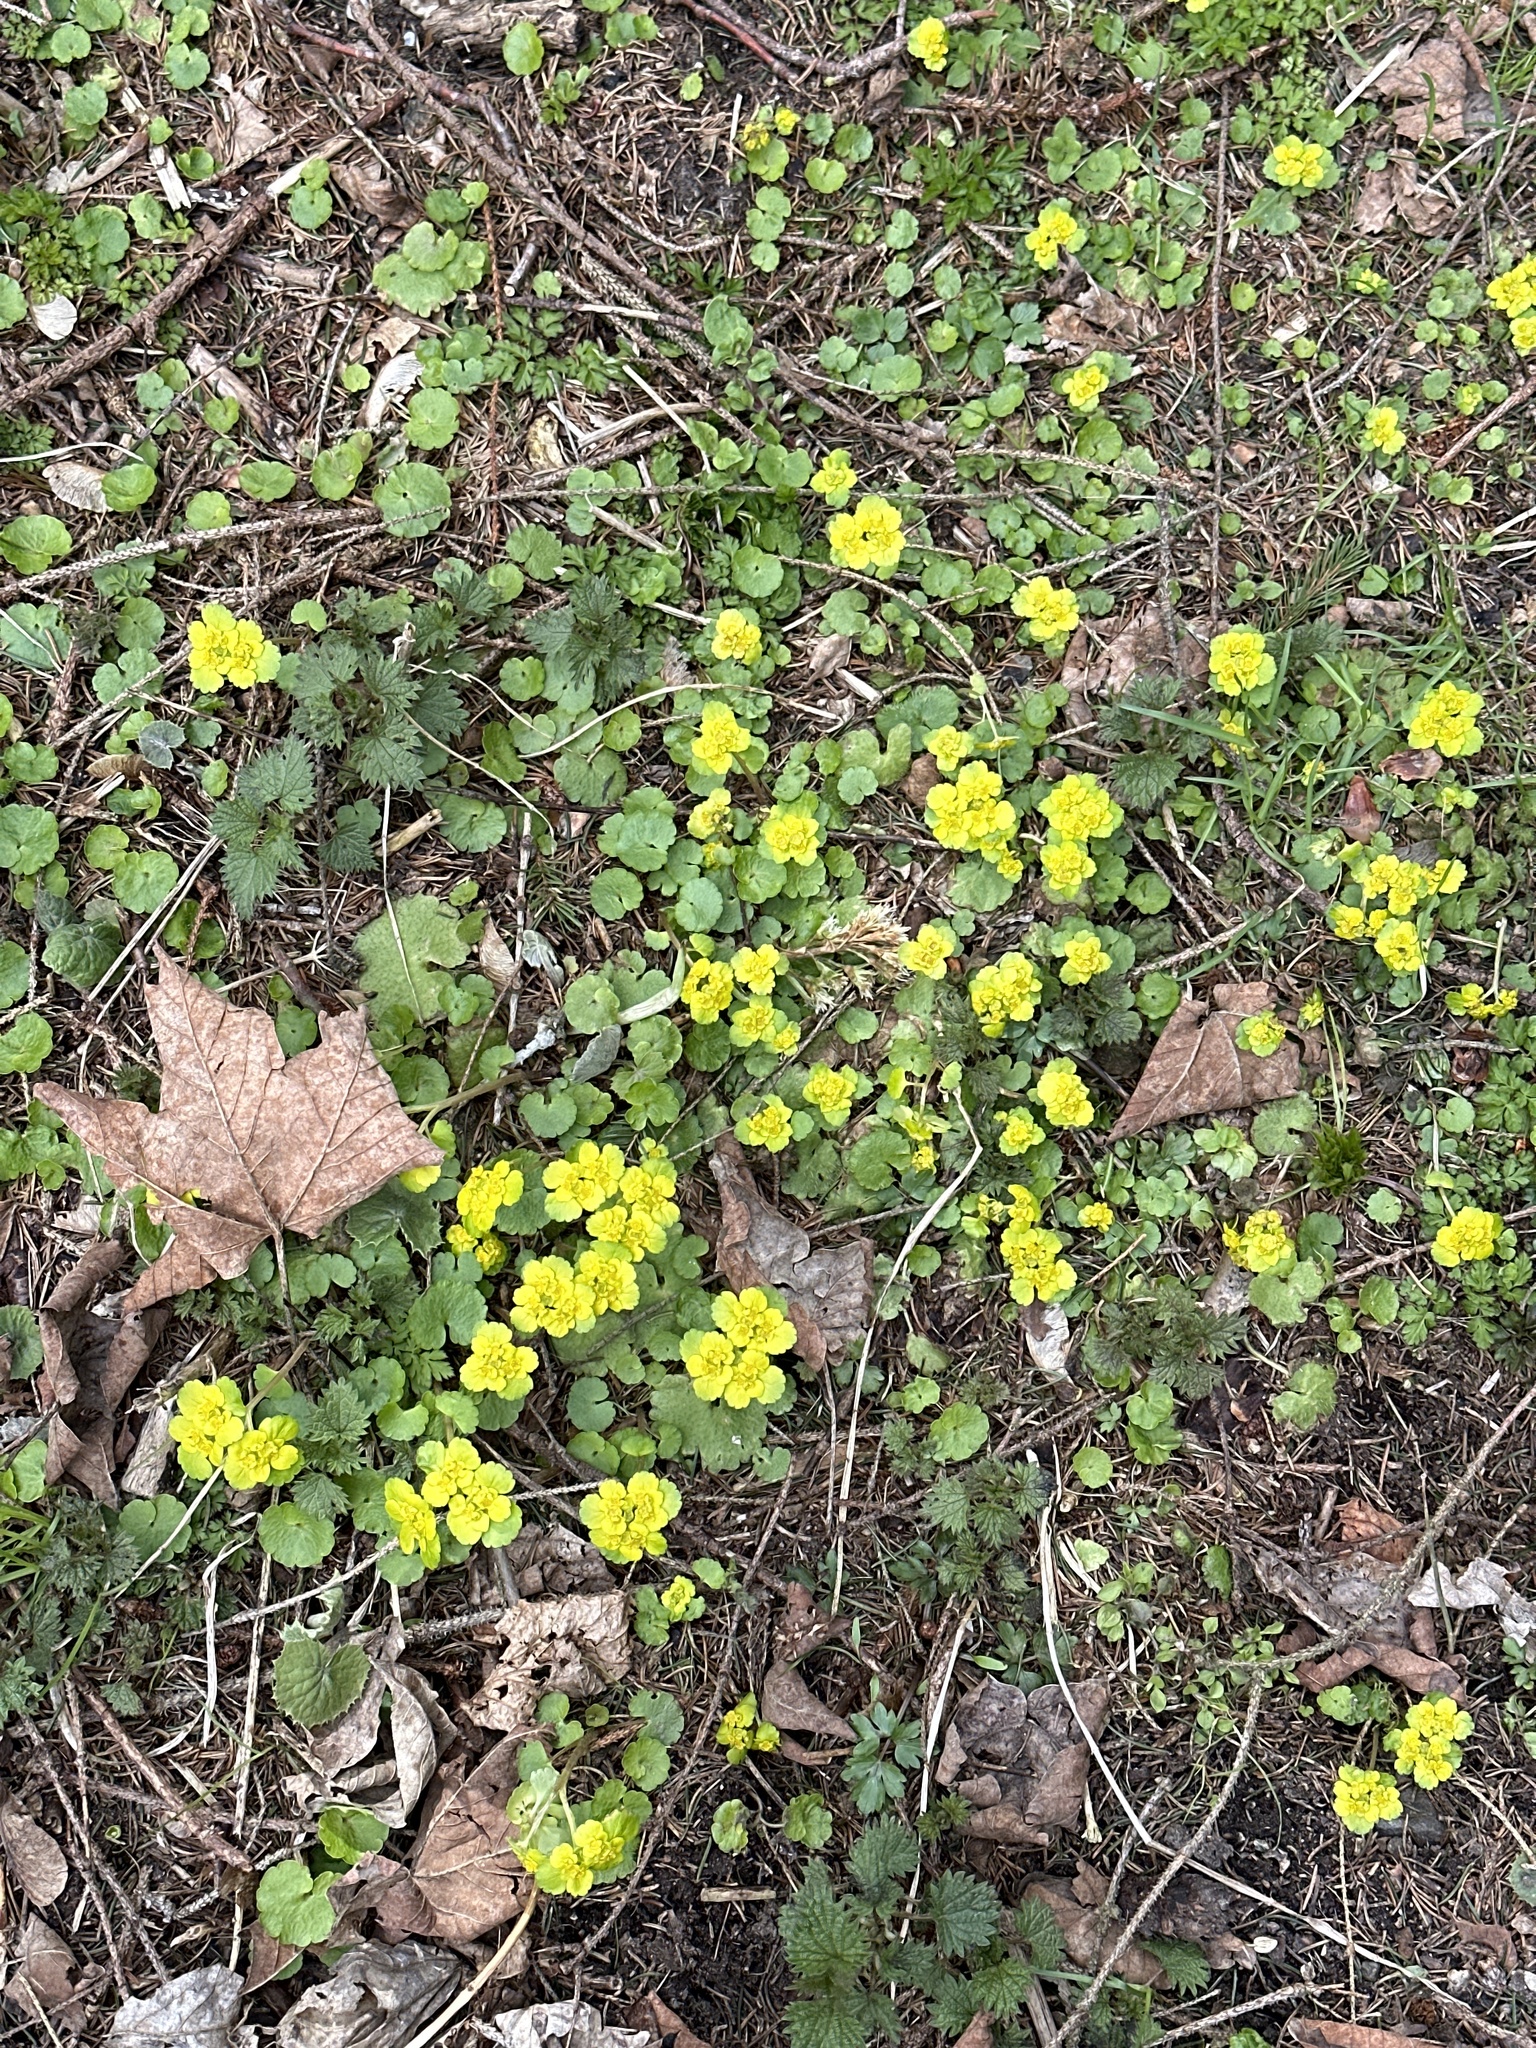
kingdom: Plantae
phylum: Tracheophyta
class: Magnoliopsida
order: Saxifragales
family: Saxifragaceae
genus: Chrysosplenium
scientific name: Chrysosplenium alternifolium
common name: Alternate-leaved golden-saxifrage
